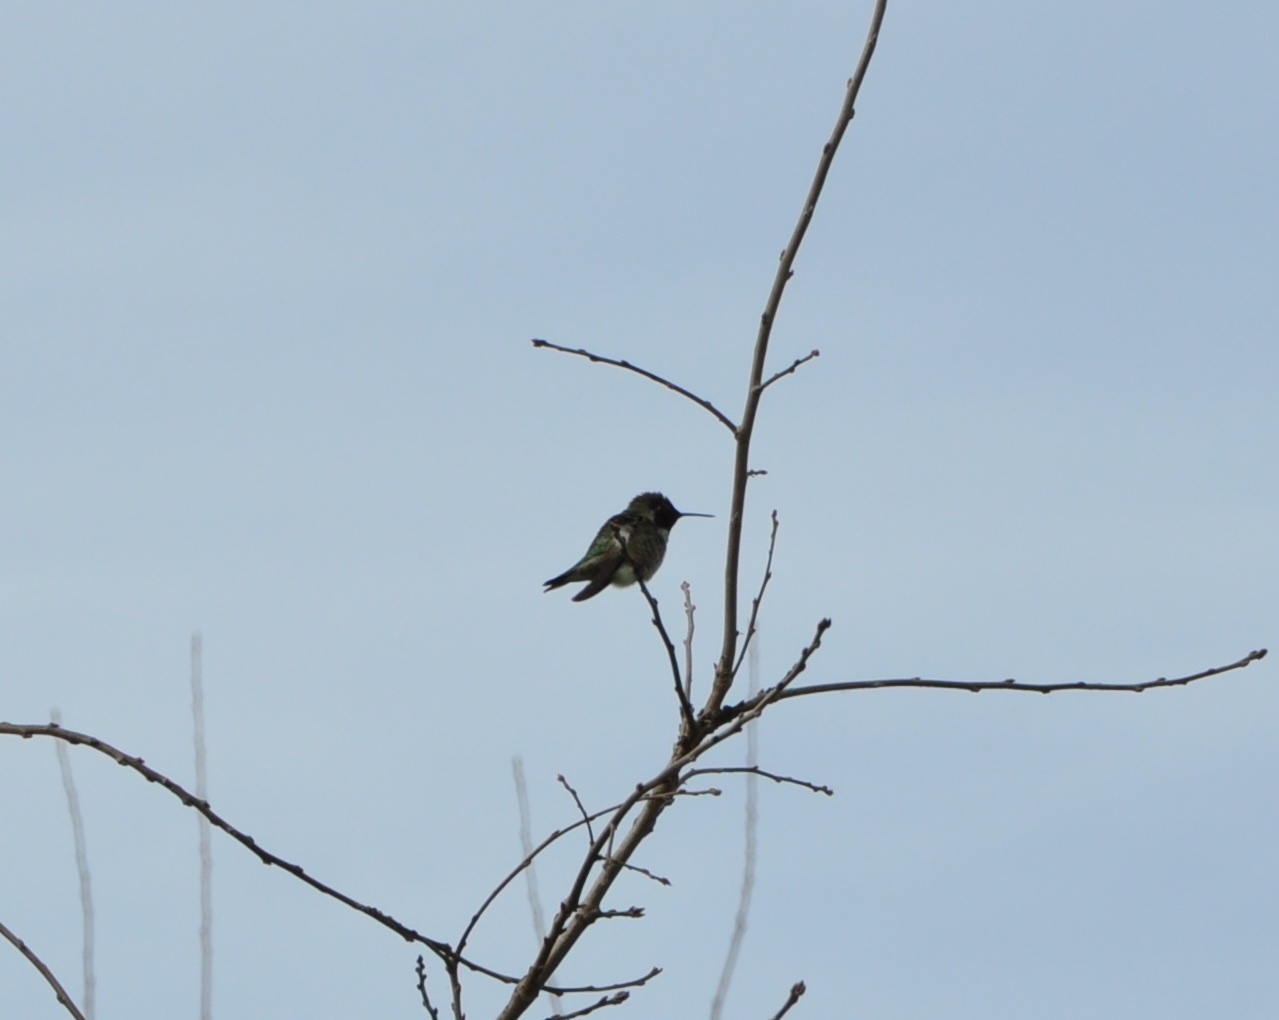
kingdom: Animalia
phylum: Chordata
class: Aves
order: Apodiformes
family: Trochilidae
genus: Calypte
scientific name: Calypte anna
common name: Anna's hummingbird
